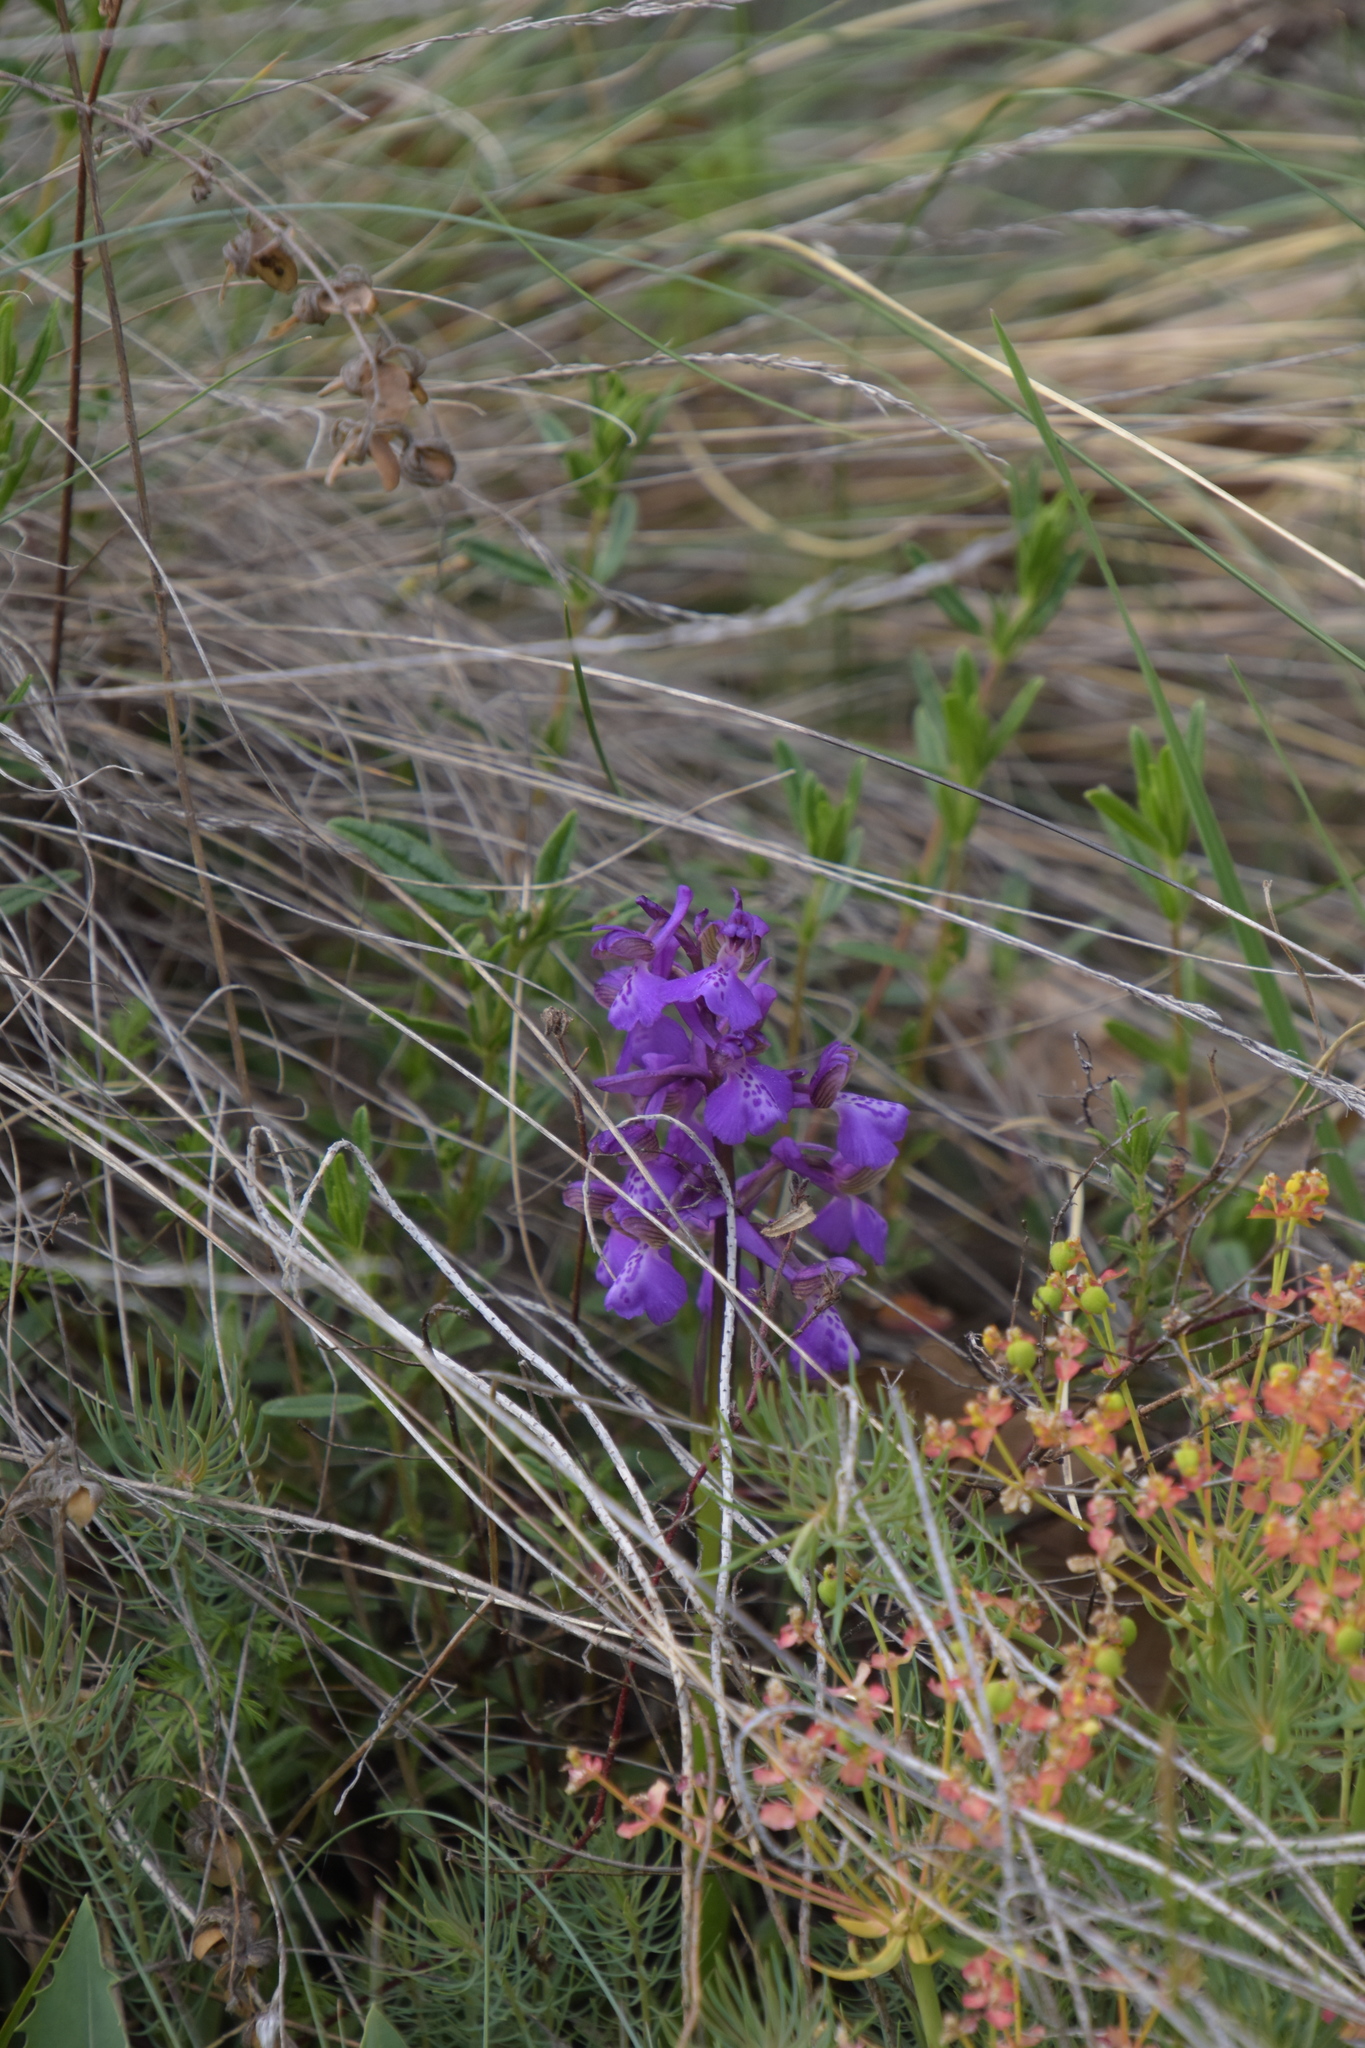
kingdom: Plantae
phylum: Tracheophyta
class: Liliopsida
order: Asparagales
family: Orchidaceae
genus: Anacamptis
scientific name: Anacamptis morio
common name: Green-winged orchid
